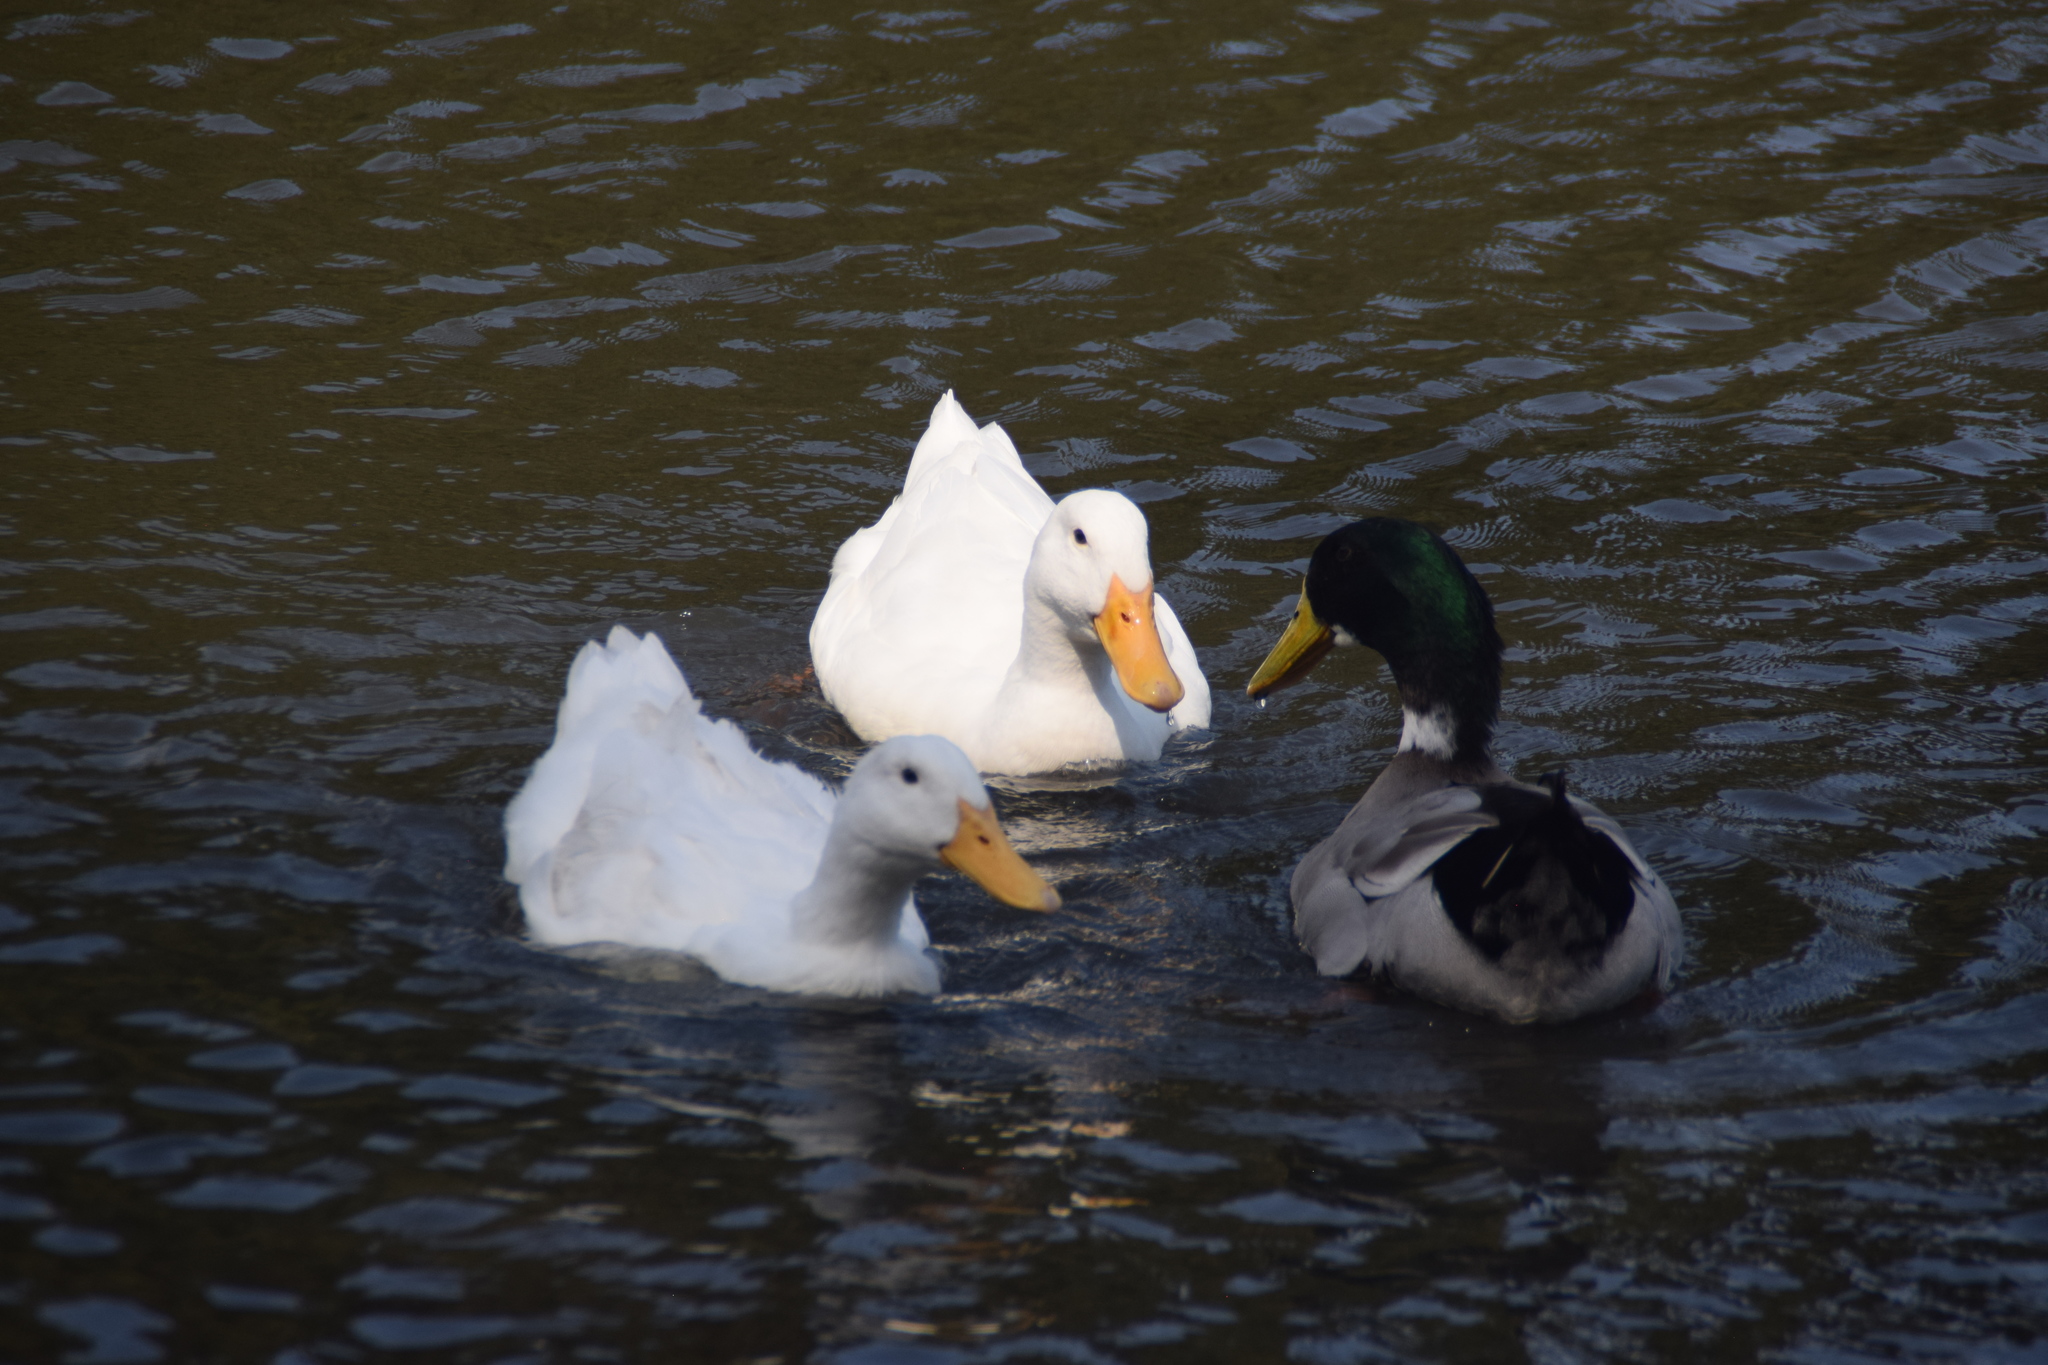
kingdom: Animalia
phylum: Chordata
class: Aves
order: Anseriformes
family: Anatidae
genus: Anas
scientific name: Anas platyrhynchos
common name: Mallard
